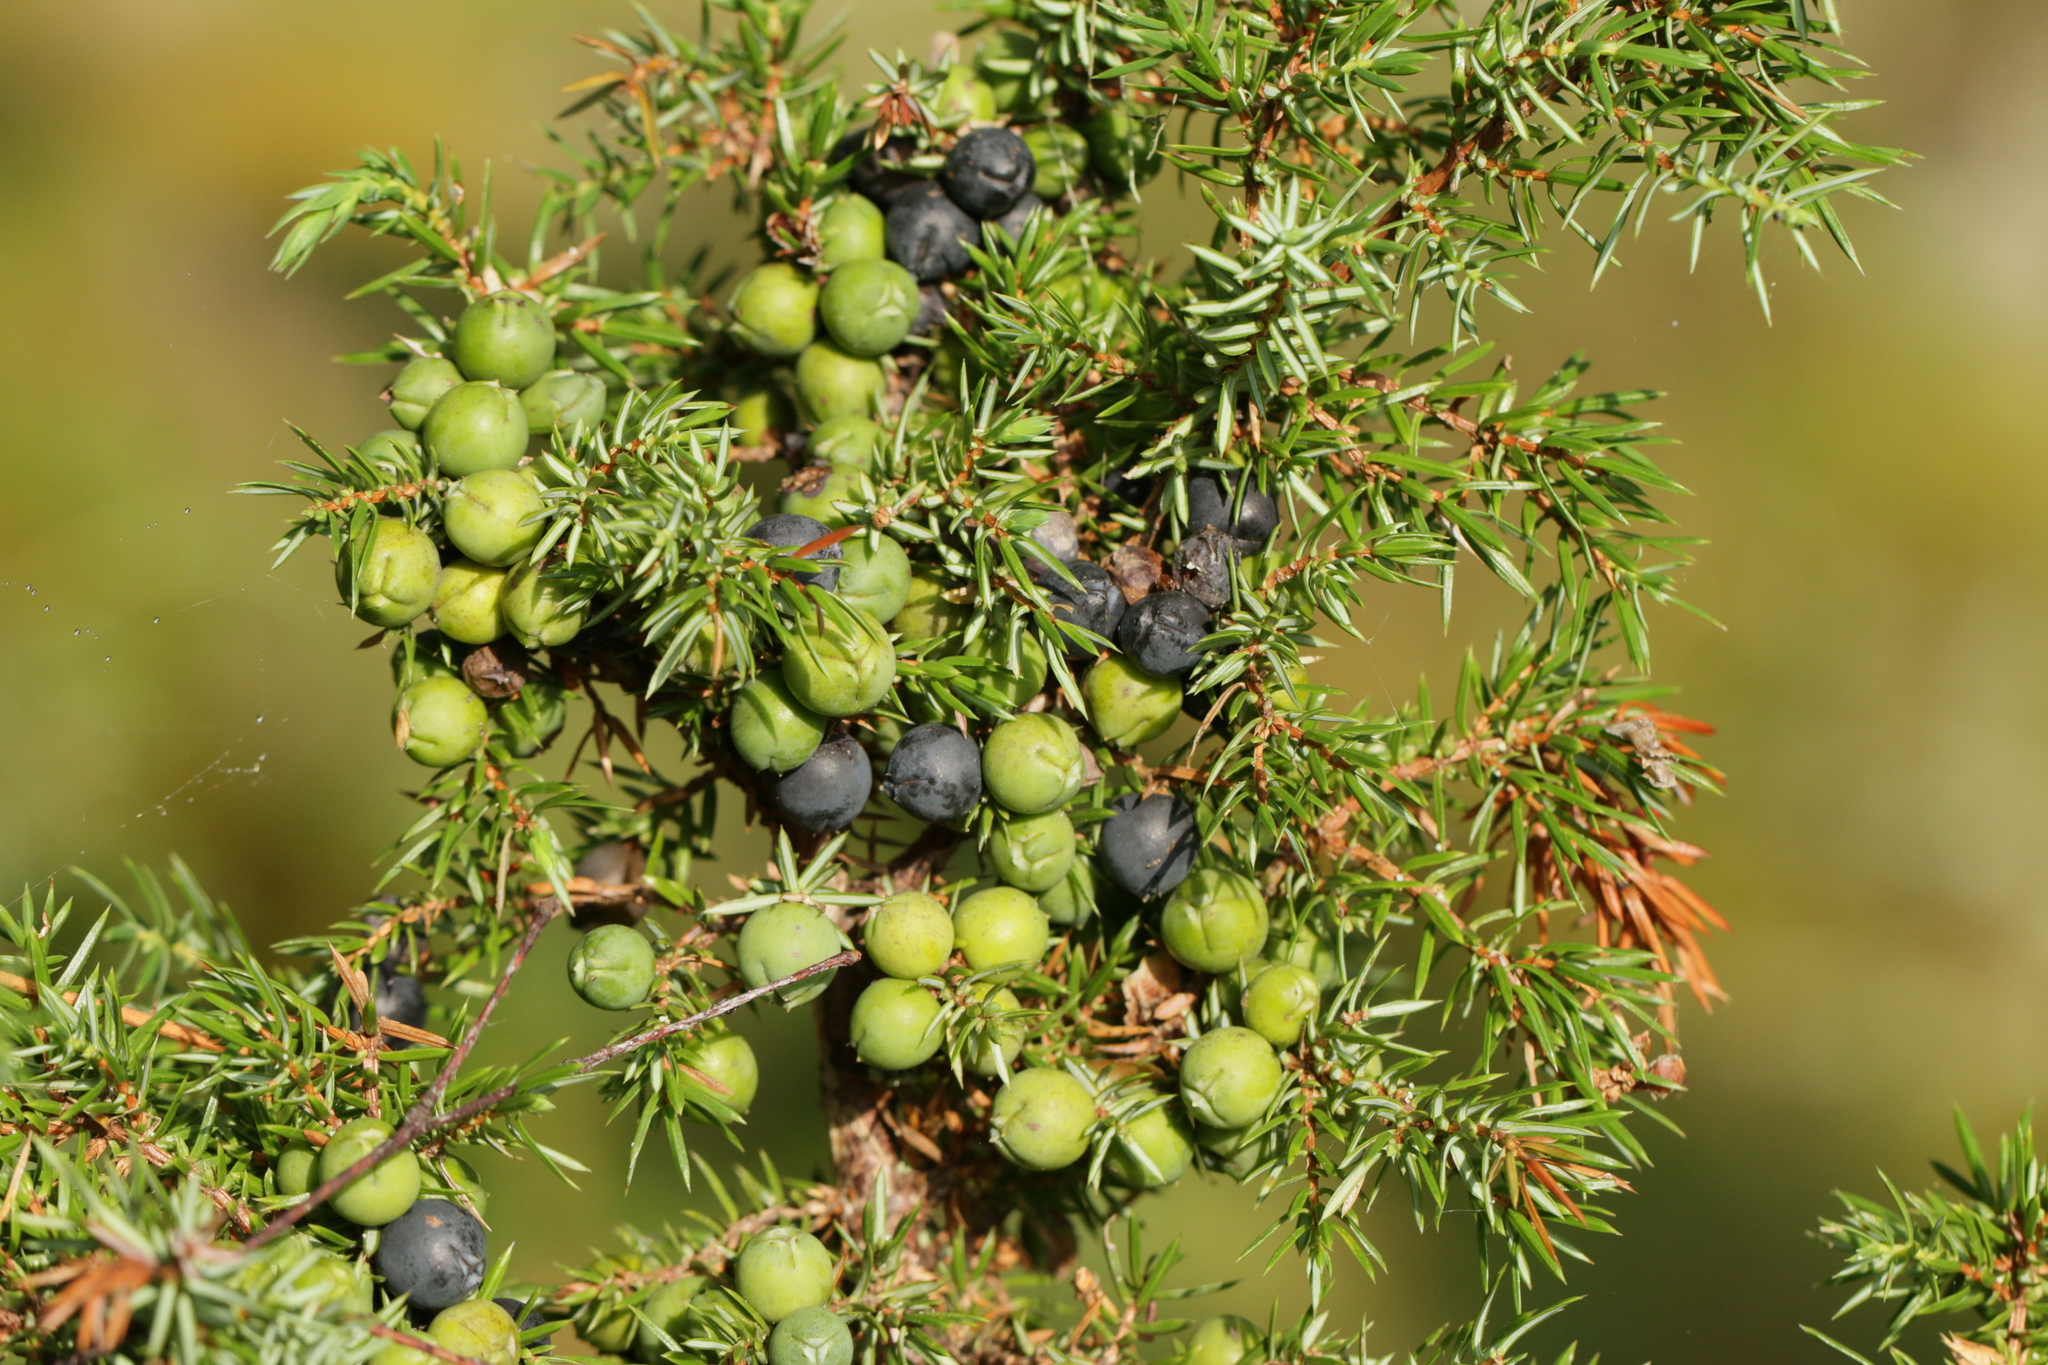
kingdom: Plantae
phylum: Tracheophyta
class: Pinopsida
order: Pinales
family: Cupressaceae
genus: Juniperus
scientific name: Juniperus communis
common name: Common juniper
